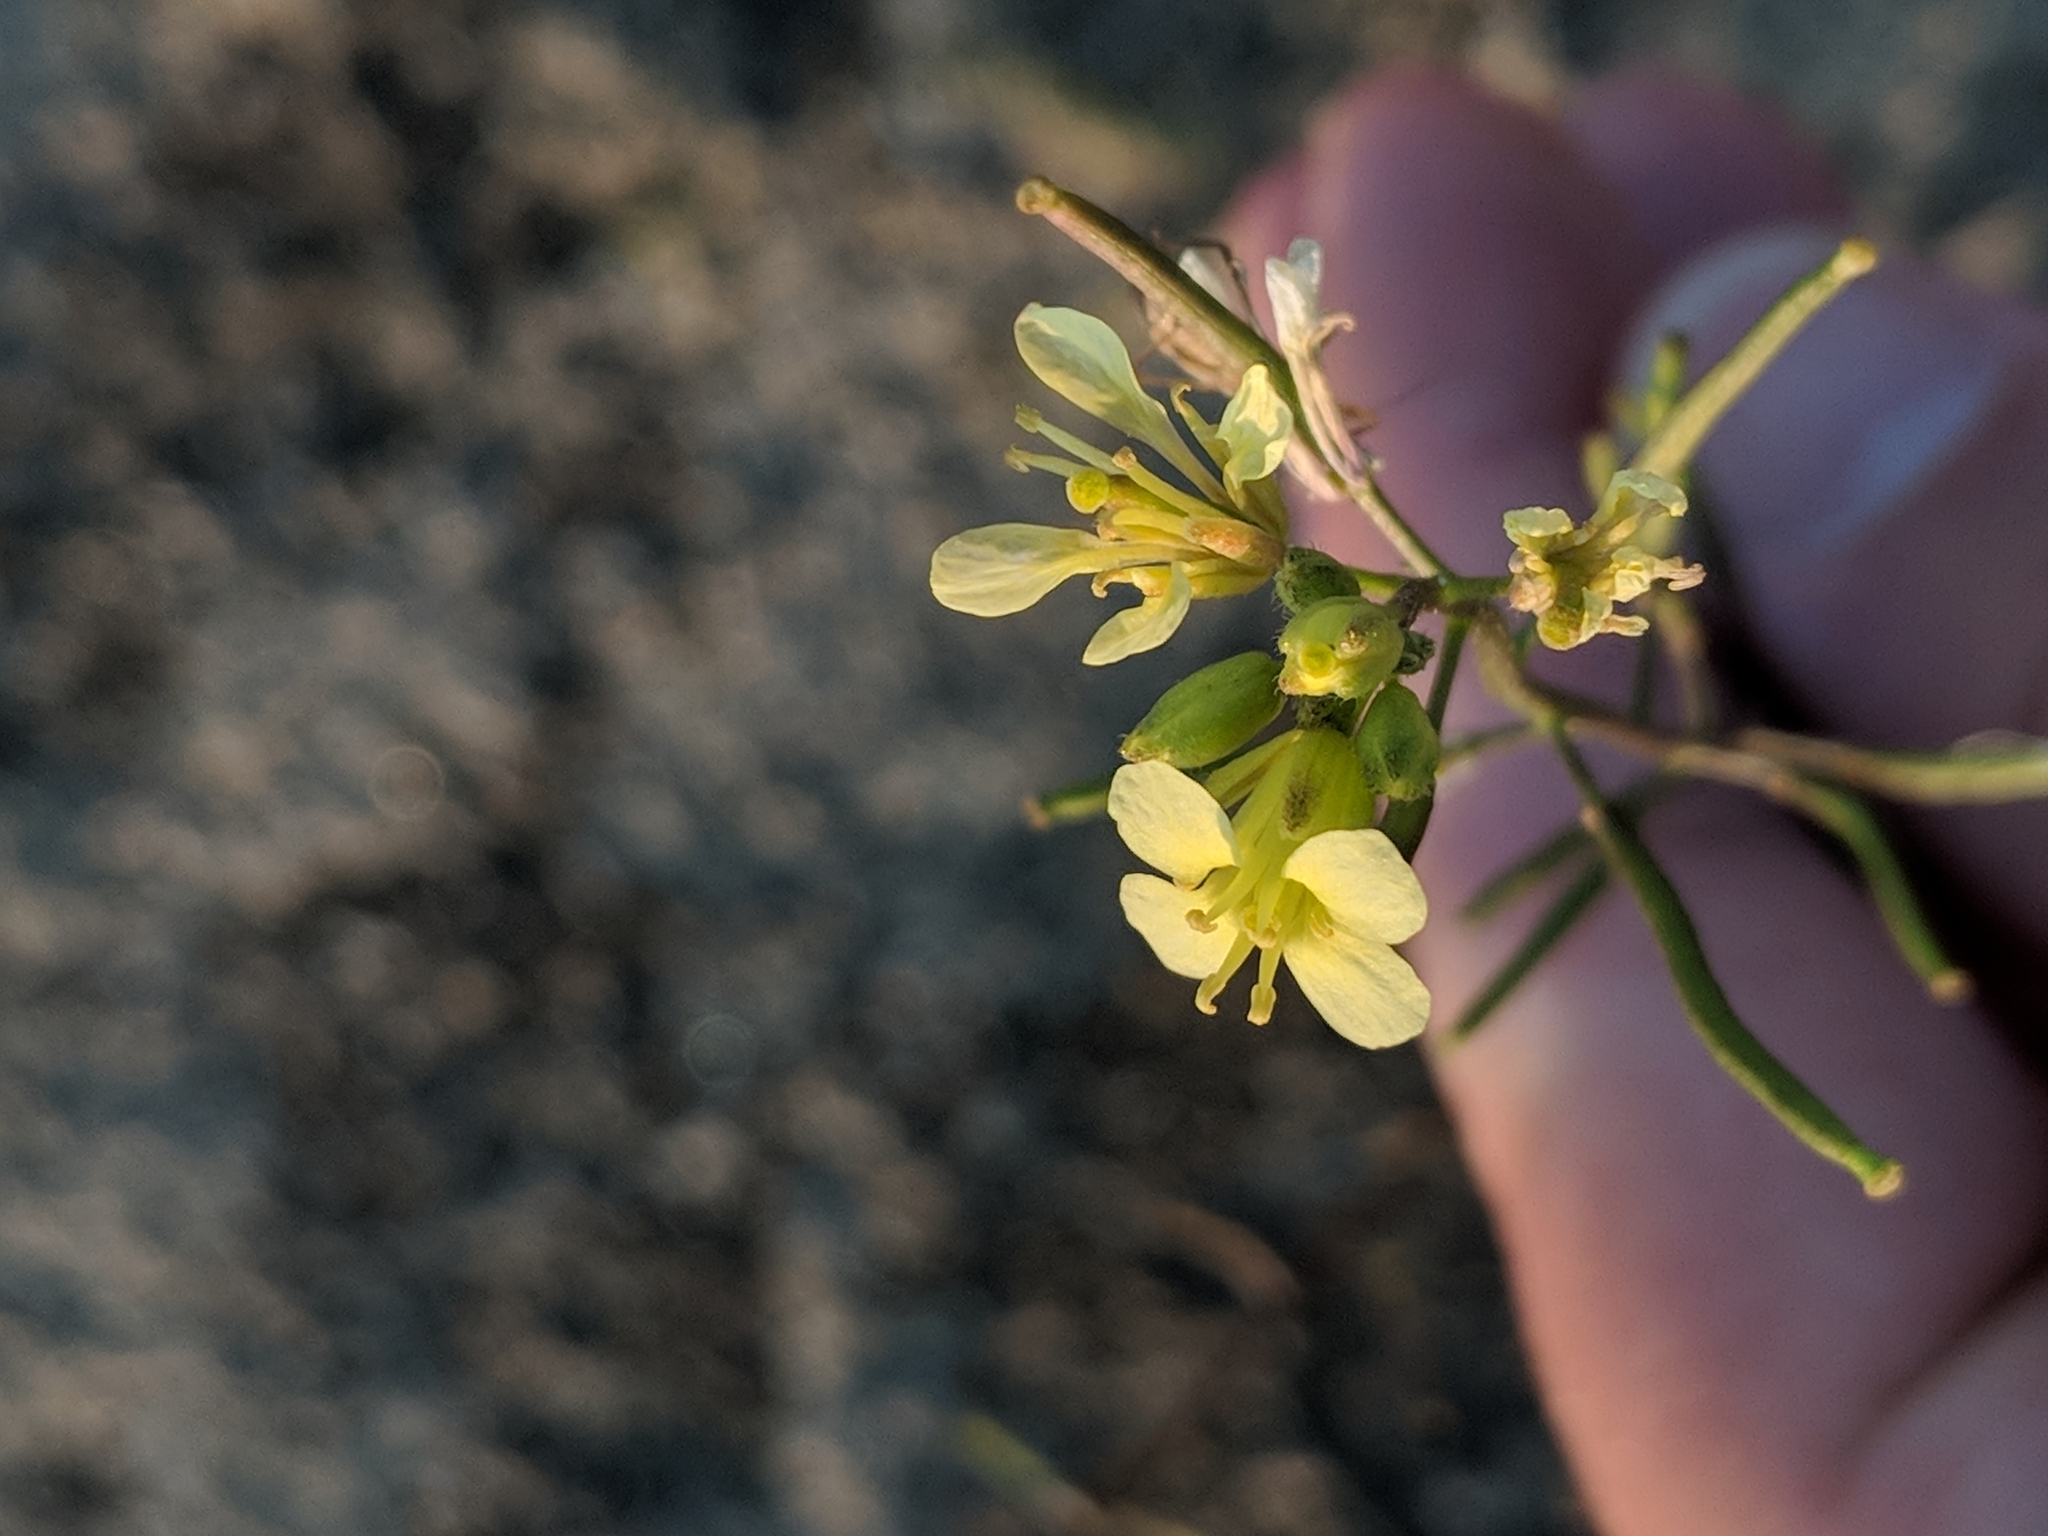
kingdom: Plantae
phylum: Tracheophyta
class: Magnoliopsida
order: Brassicales
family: Brassicaceae
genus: Erucastrum
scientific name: Erucastrum gallicum
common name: Hairy rocket
